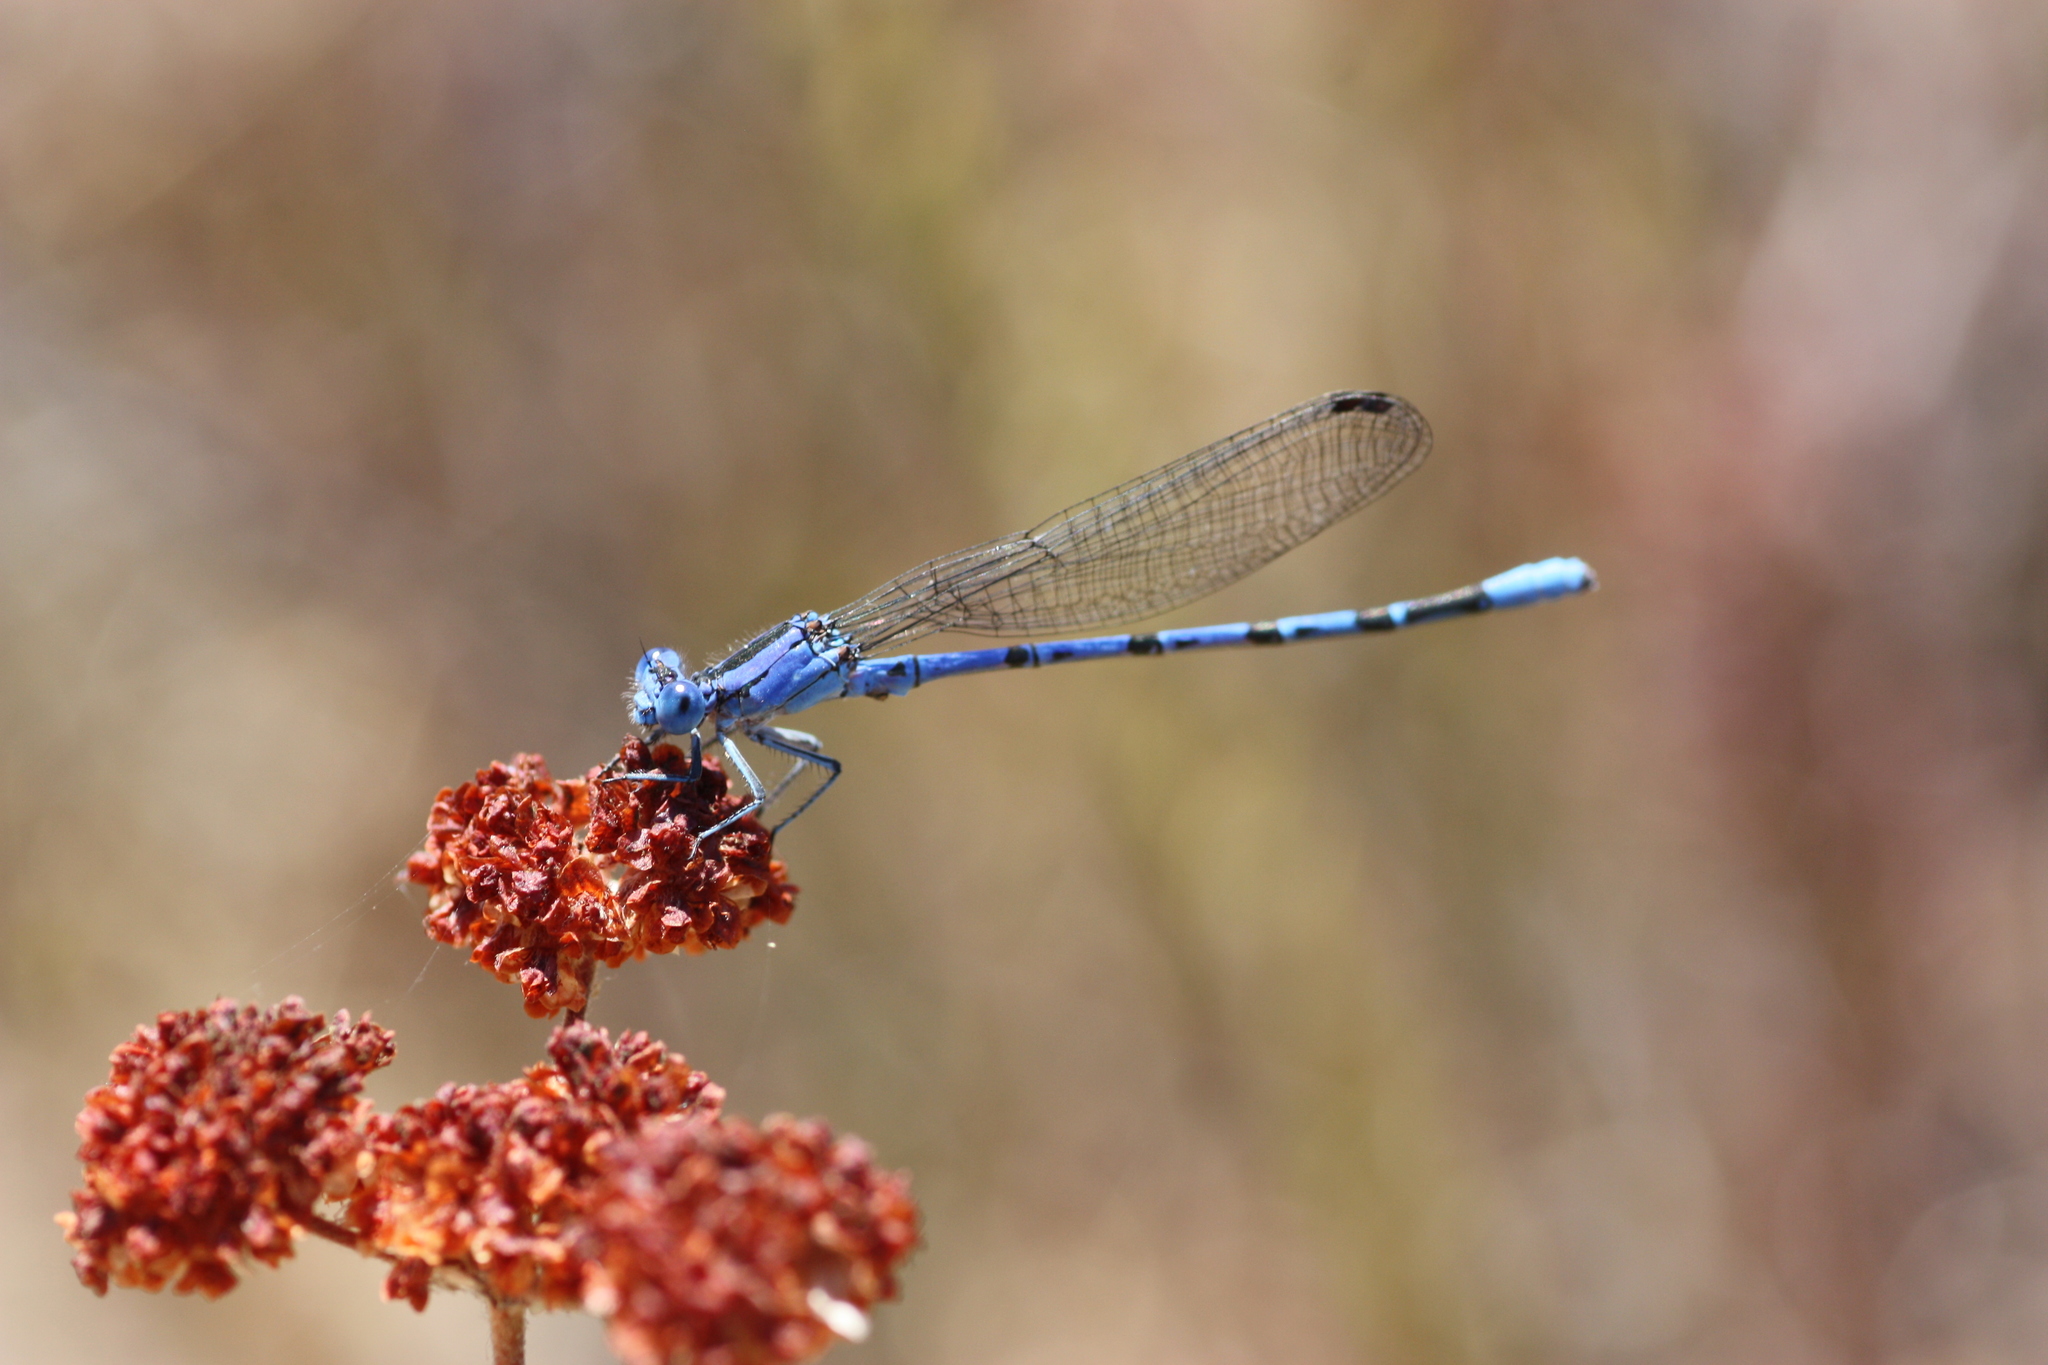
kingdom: Animalia
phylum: Arthropoda
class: Insecta
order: Odonata
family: Coenagrionidae
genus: Argia
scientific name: Argia vivida
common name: Vivid dancer
